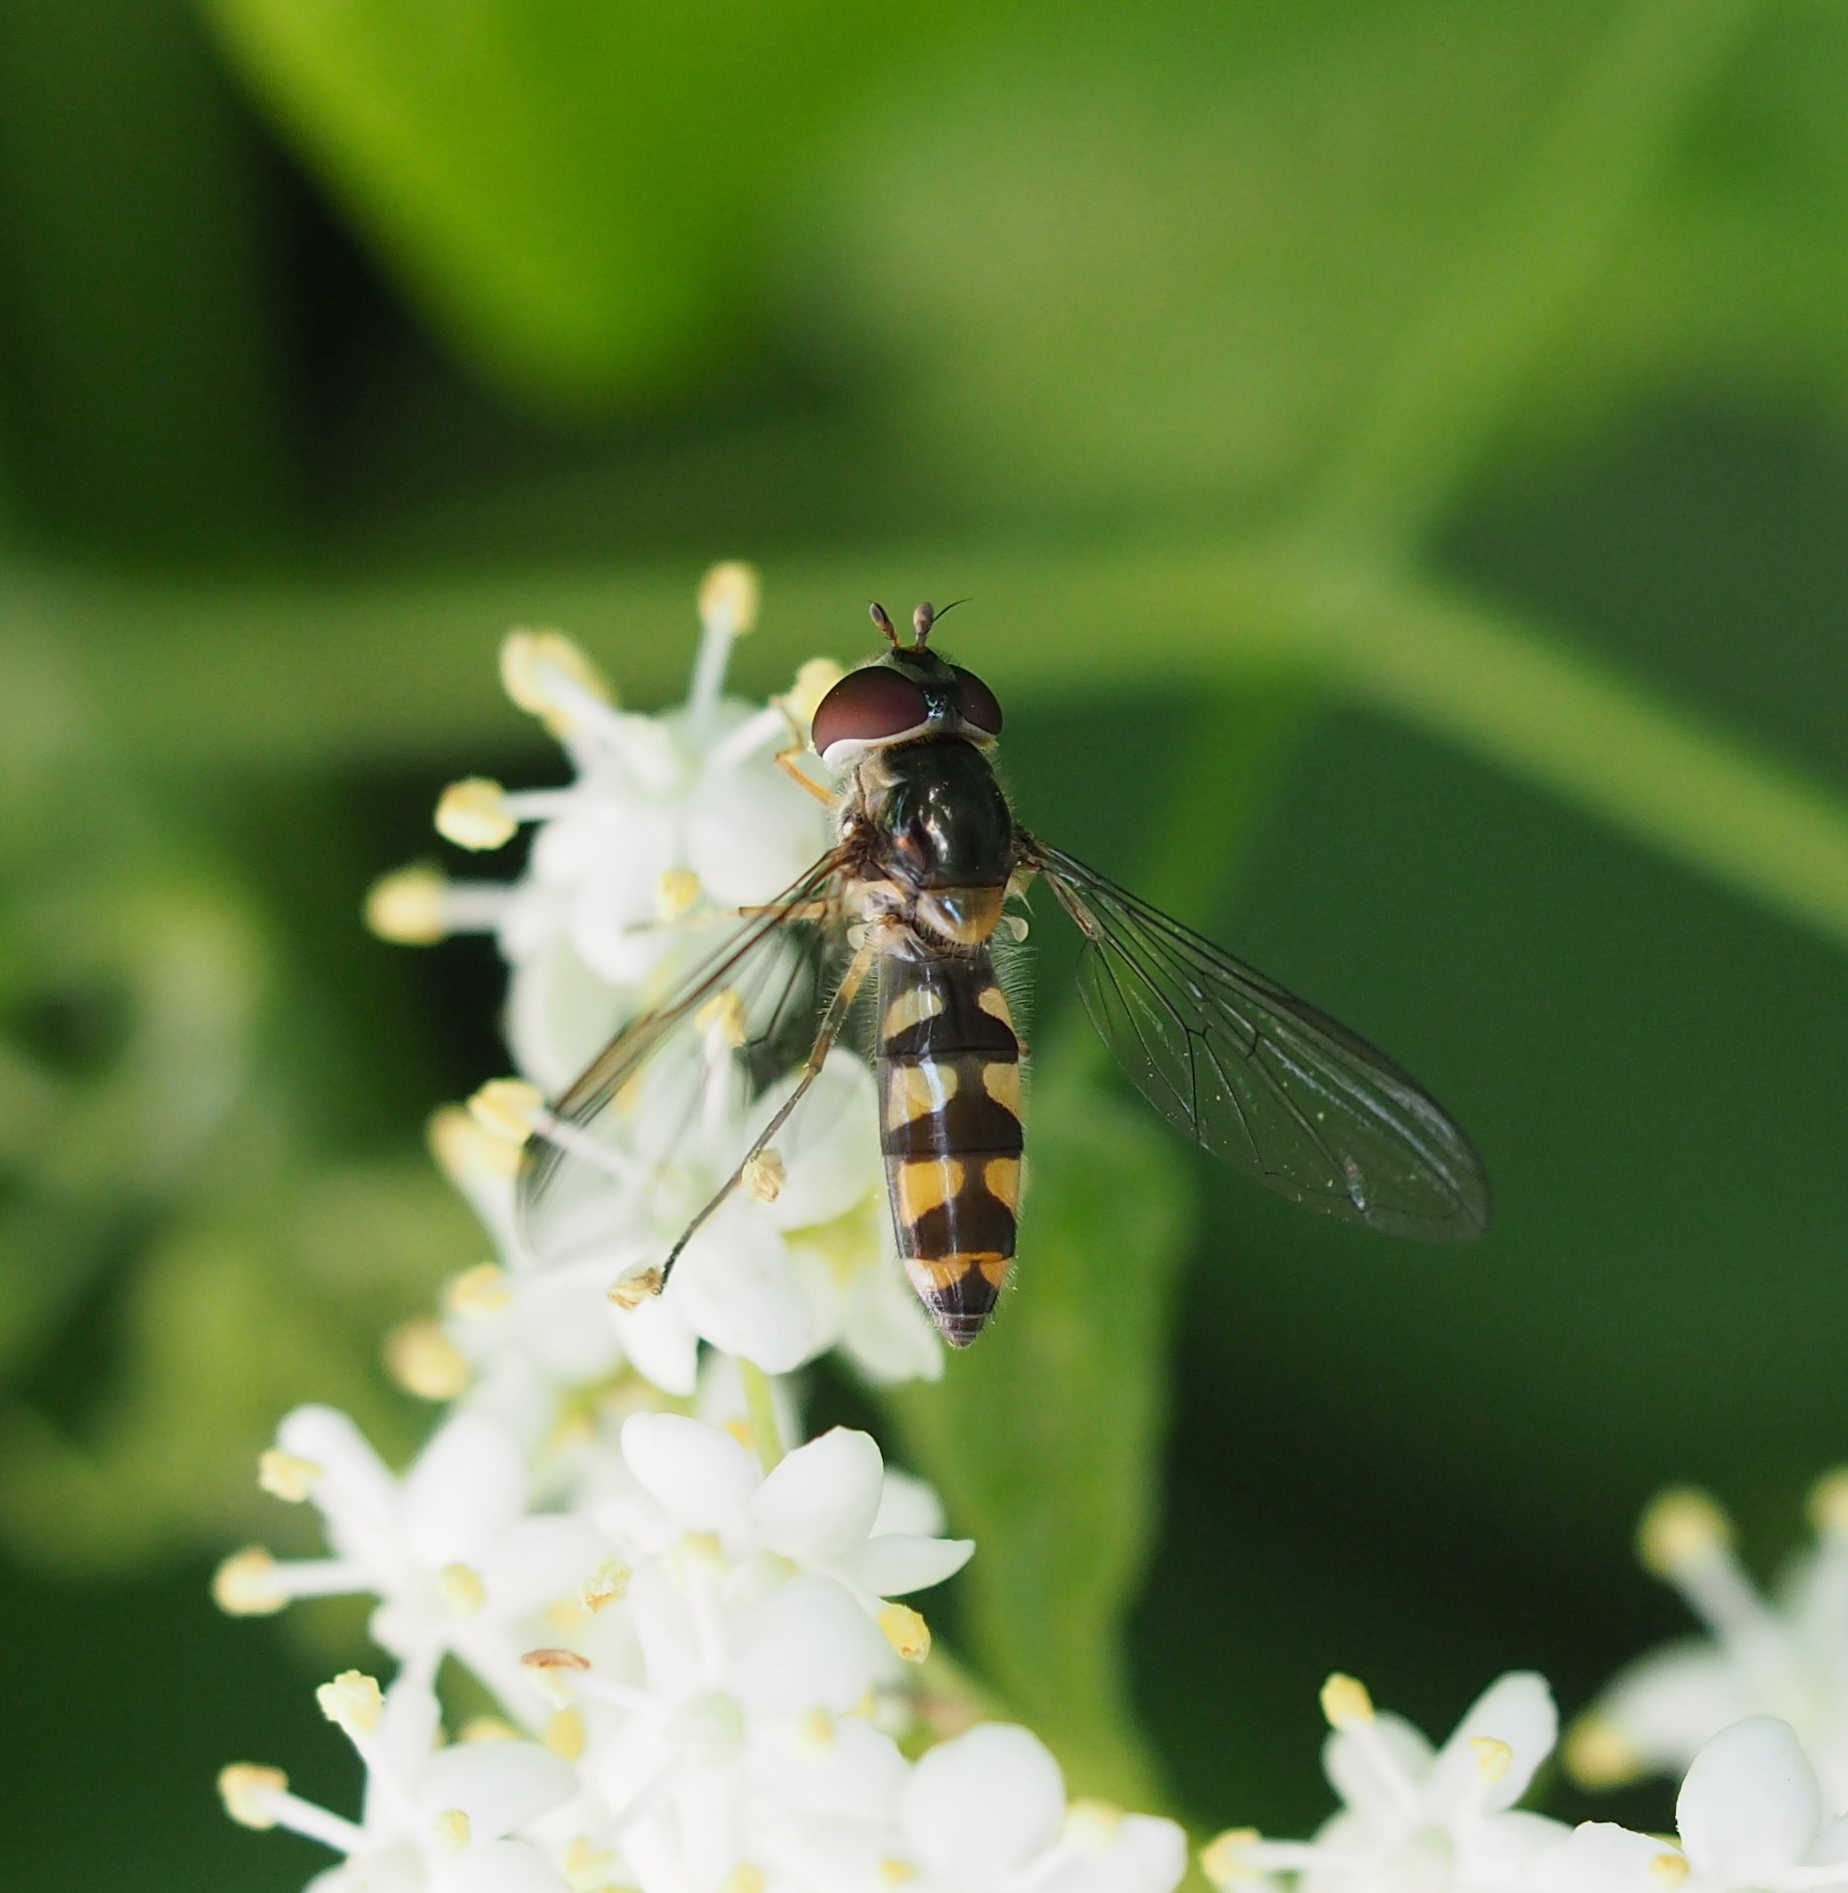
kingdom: Animalia
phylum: Arthropoda
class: Insecta
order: Diptera
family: Syrphidae
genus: Meliscaeva
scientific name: Meliscaeva auricollis
